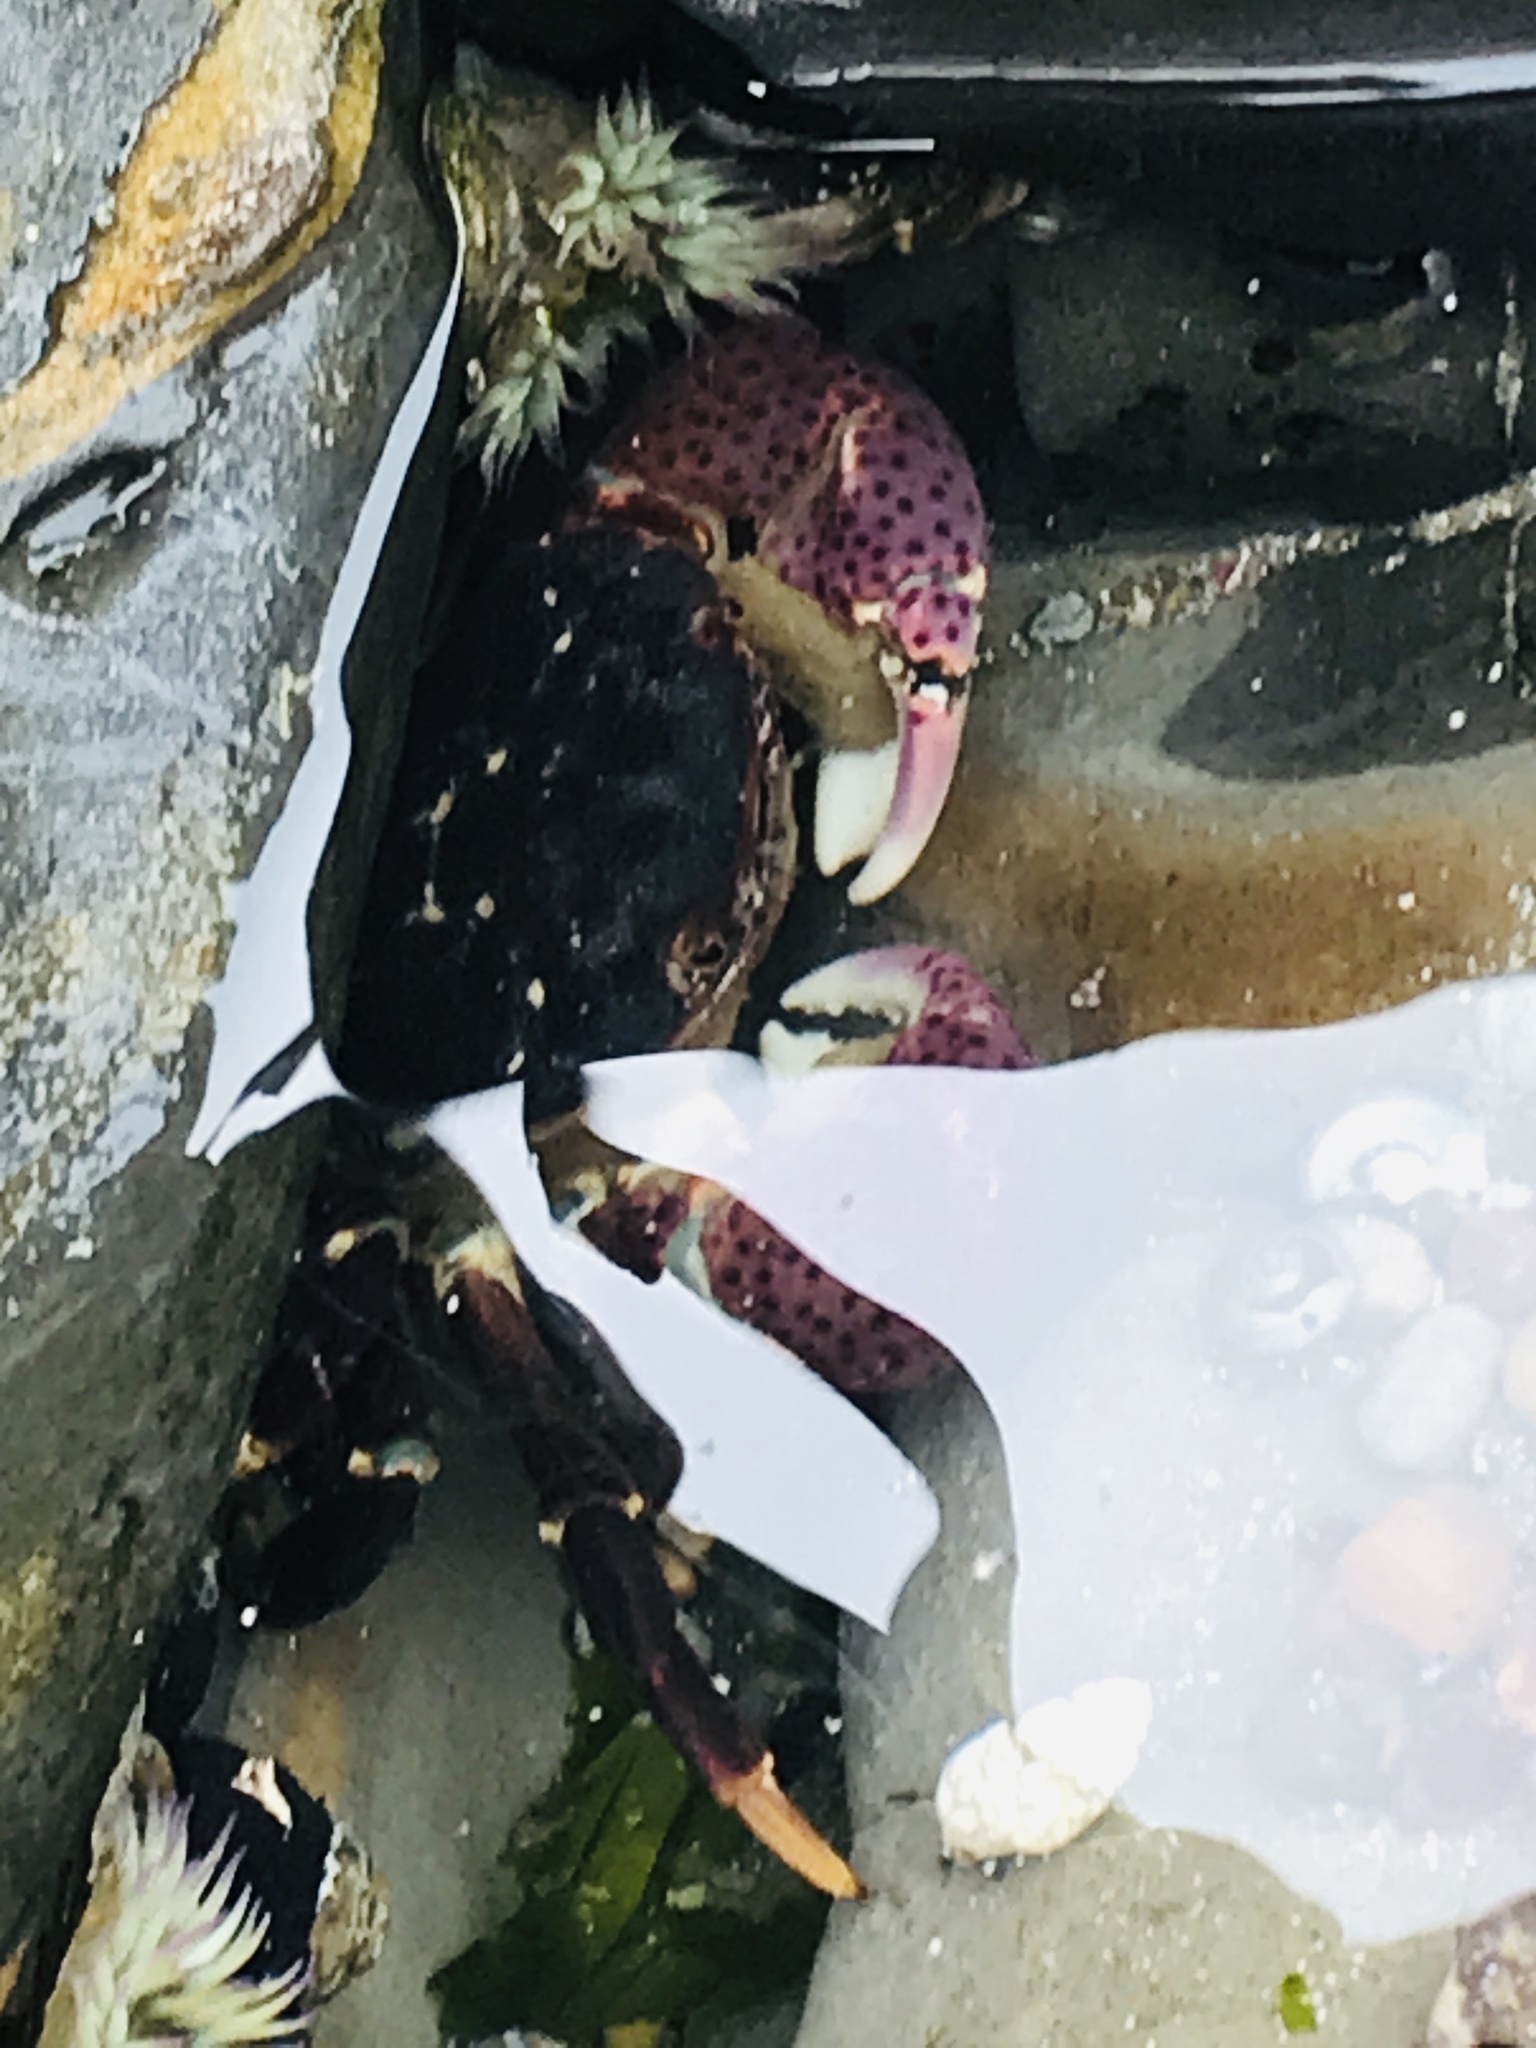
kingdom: Animalia
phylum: Arthropoda
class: Malacostraca
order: Decapoda
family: Varunidae
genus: Hemigrapsus
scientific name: Hemigrapsus nudus
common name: Purple shore crab
